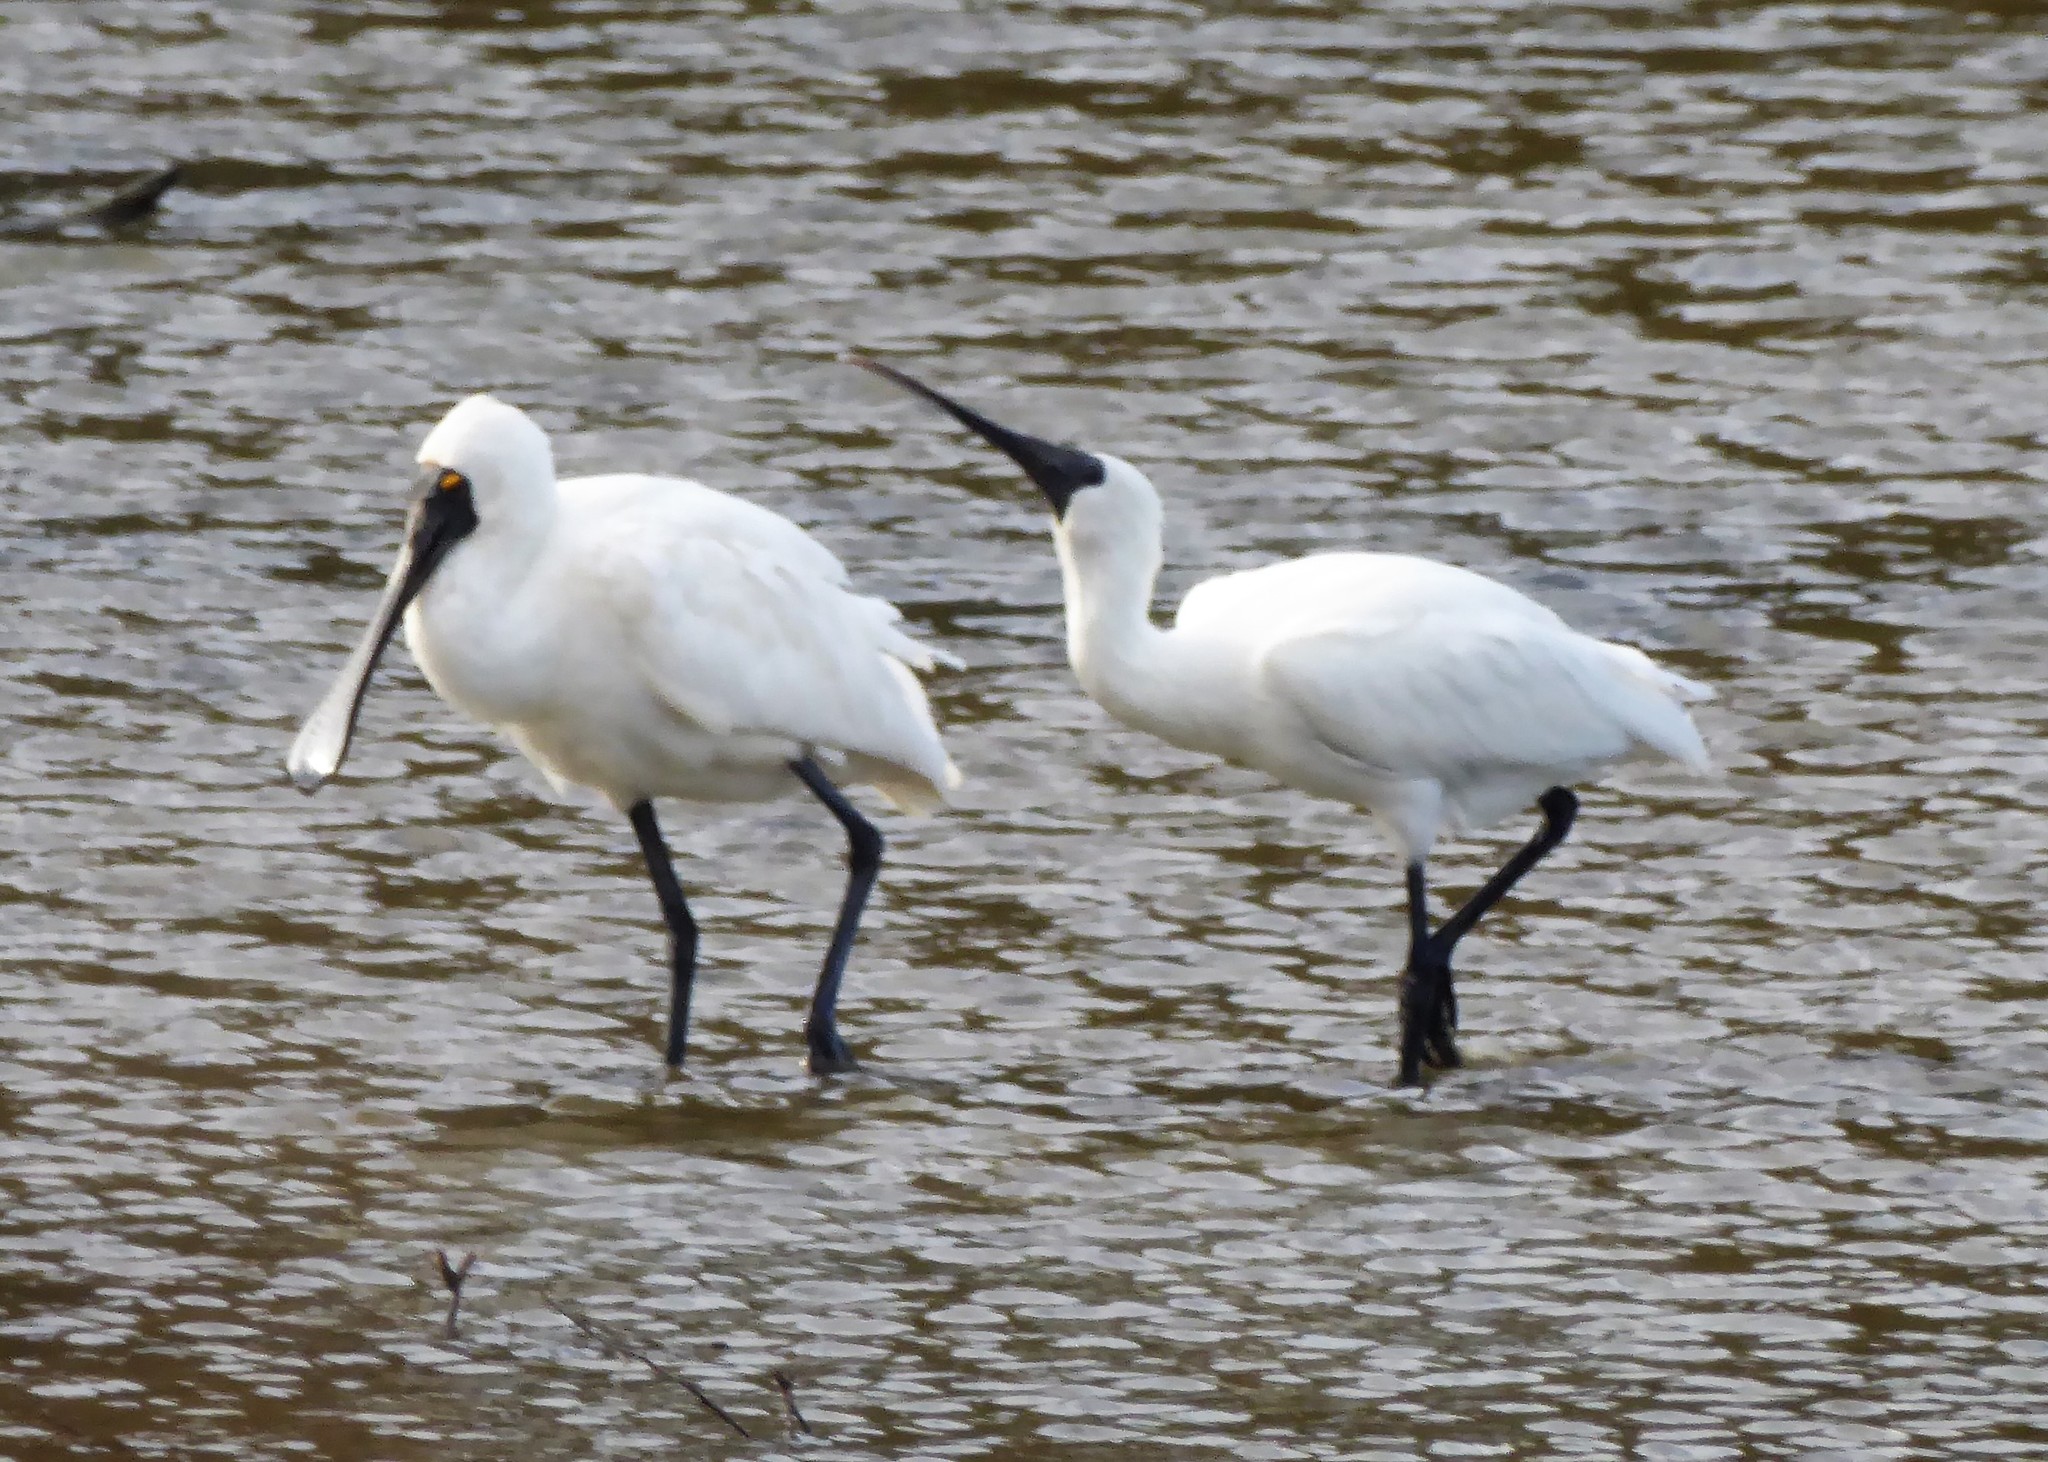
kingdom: Animalia
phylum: Chordata
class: Aves
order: Pelecaniformes
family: Threskiornithidae
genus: Platalea
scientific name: Platalea regia
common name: Royal spoonbill
